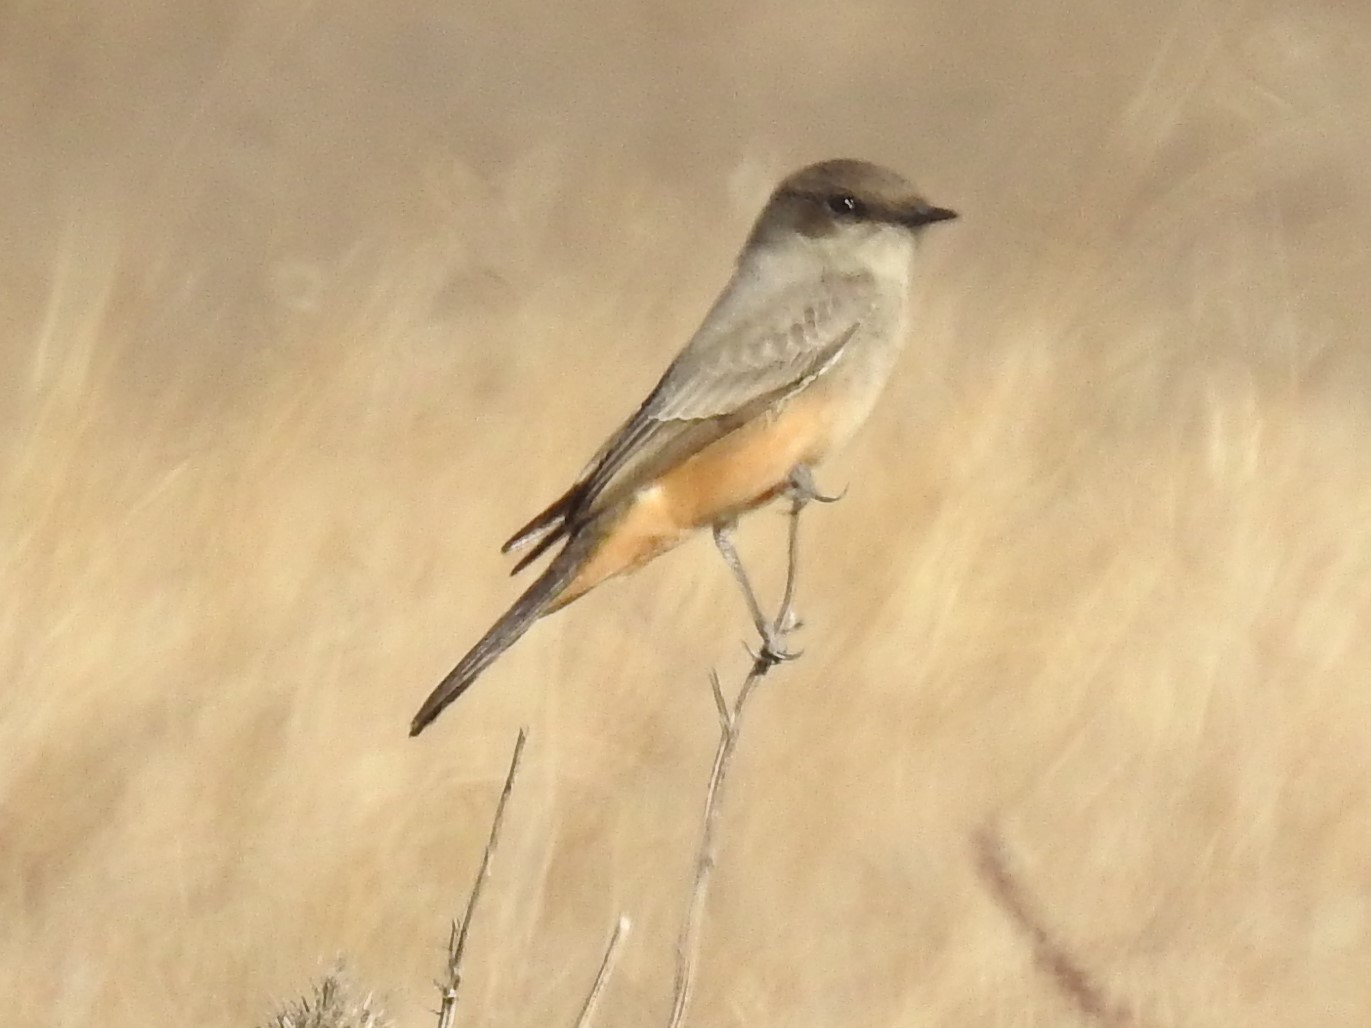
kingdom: Animalia
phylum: Chordata
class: Aves
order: Passeriformes
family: Tyrannidae
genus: Sayornis
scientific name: Sayornis saya
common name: Say's phoebe
